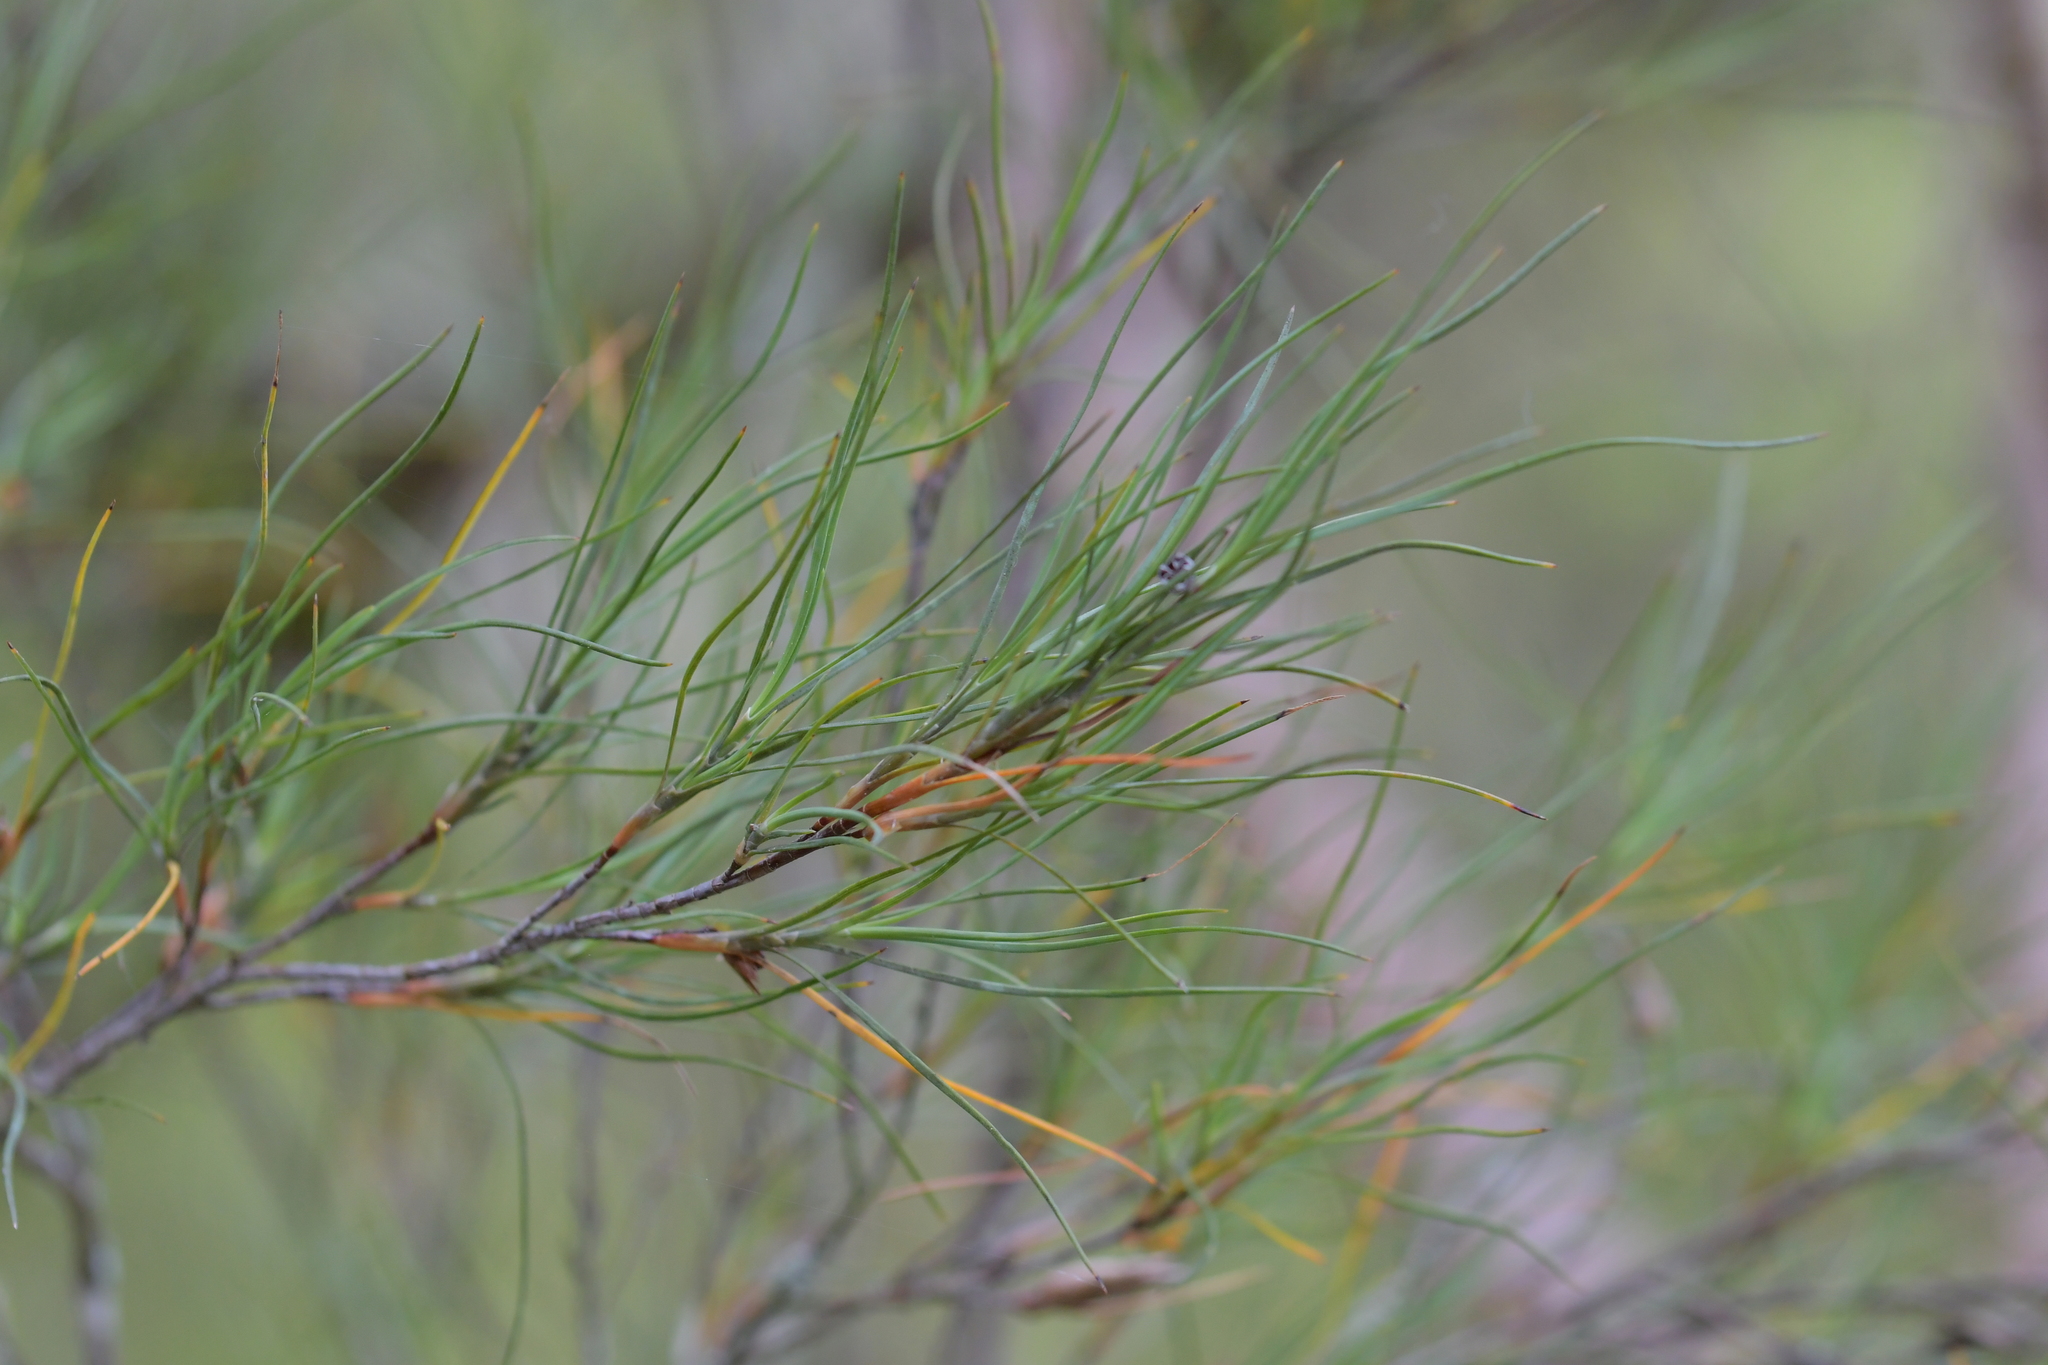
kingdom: Plantae
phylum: Tracheophyta
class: Magnoliopsida
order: Ericales
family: Ericaceae
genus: Dracophyllum
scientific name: Dracophyllum subulatum
